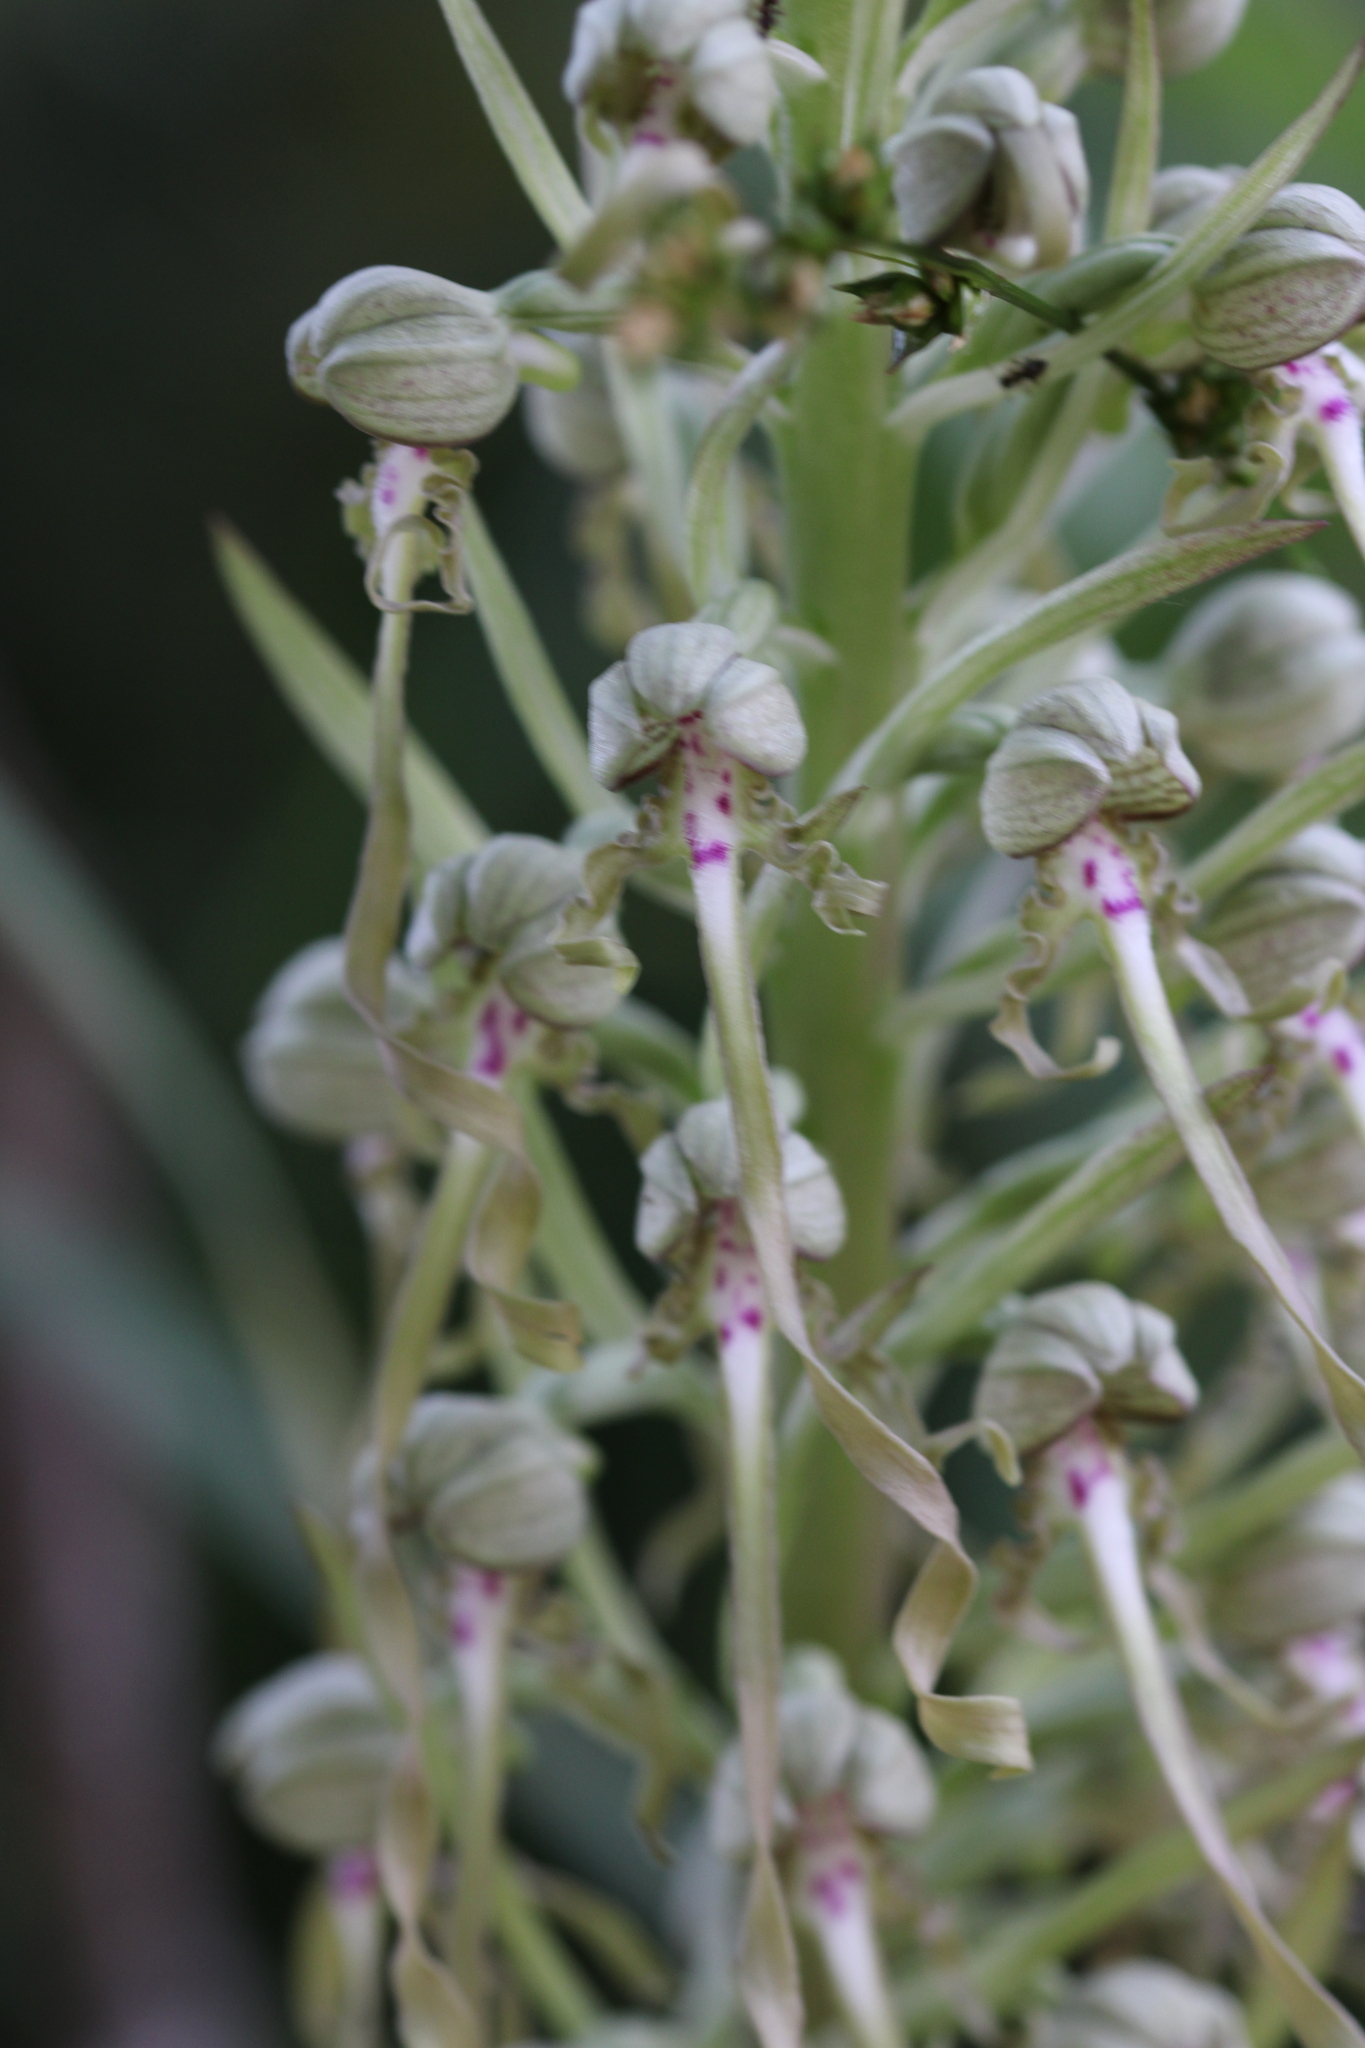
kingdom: Plantae
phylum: Tracheophyta
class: Liliopsida
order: Asparagales
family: Orchidaceae
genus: Himantoglossum
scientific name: Himantoglossum hircinum
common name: Lizard orchid
